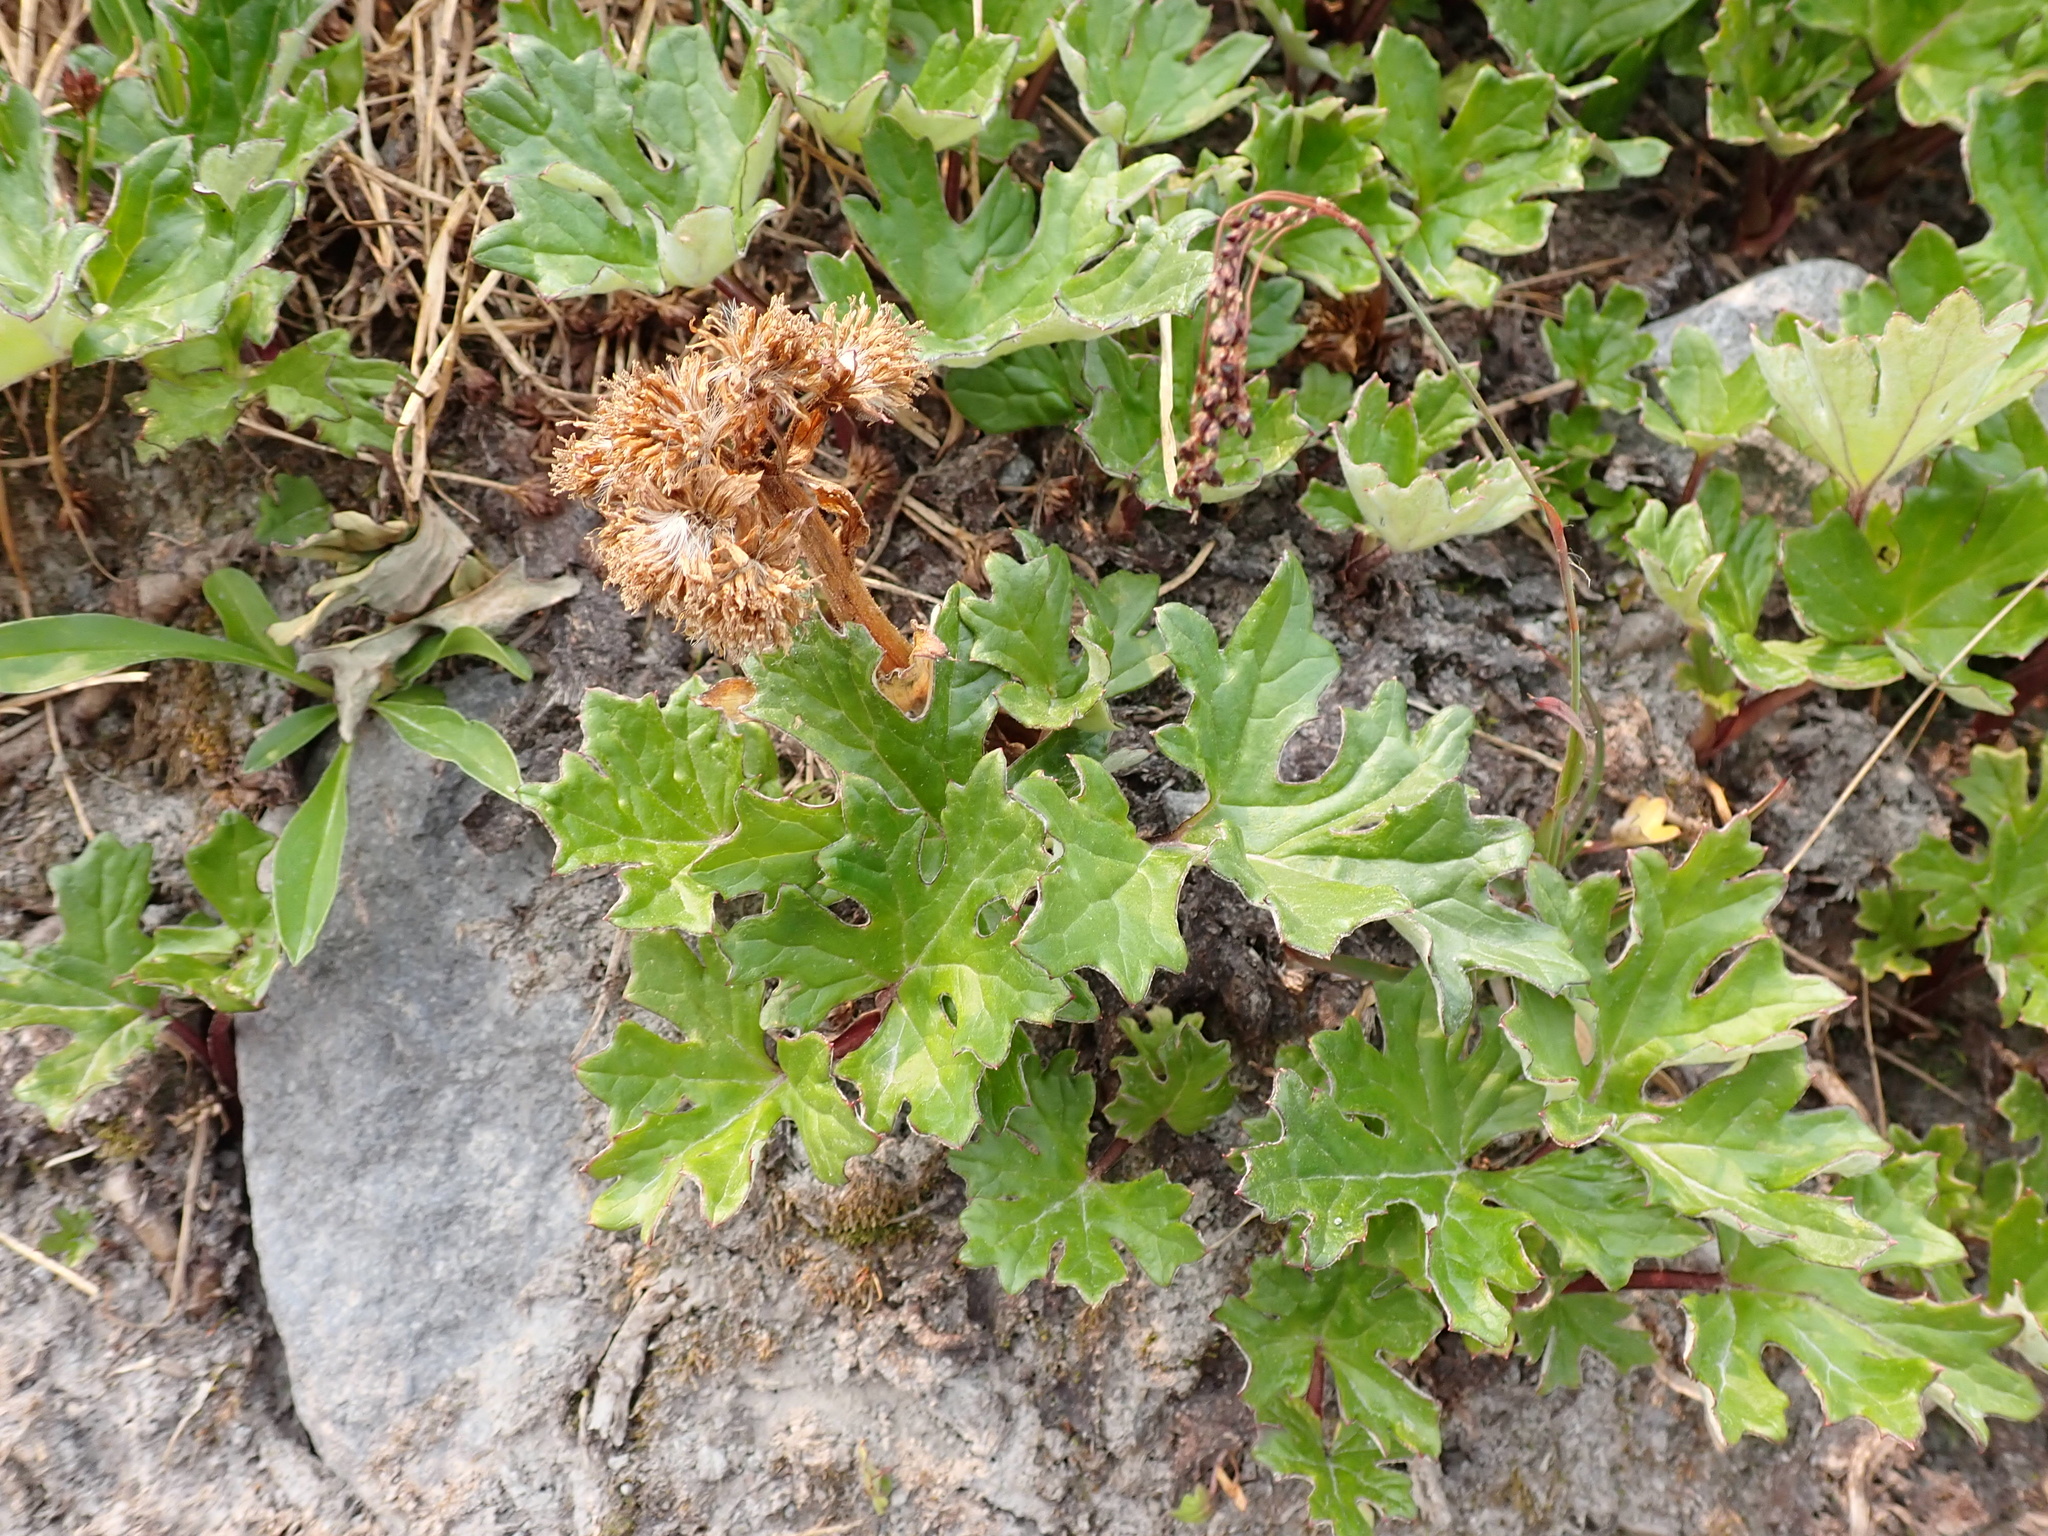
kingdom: Plantae
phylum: Tracheophyta
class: Magnoliopsida
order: Asterales
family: Asteraceae
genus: Petasites
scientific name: Petasites frigidus
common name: Arctic butterbur
